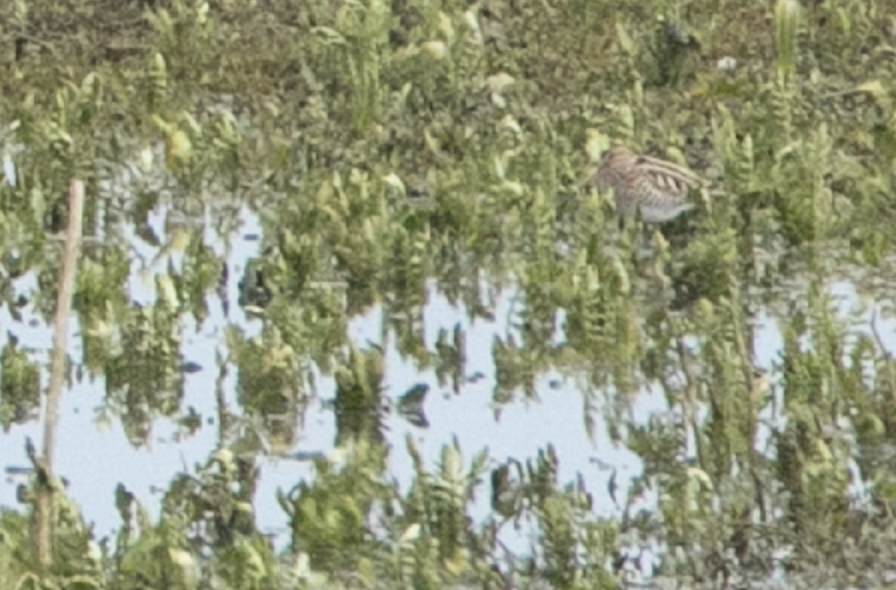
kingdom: Animalia
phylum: Chordata
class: Aves
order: Charadriiformes
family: Scolopacidae
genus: Gallinago
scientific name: Gallinago gallinago
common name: Common snipe
